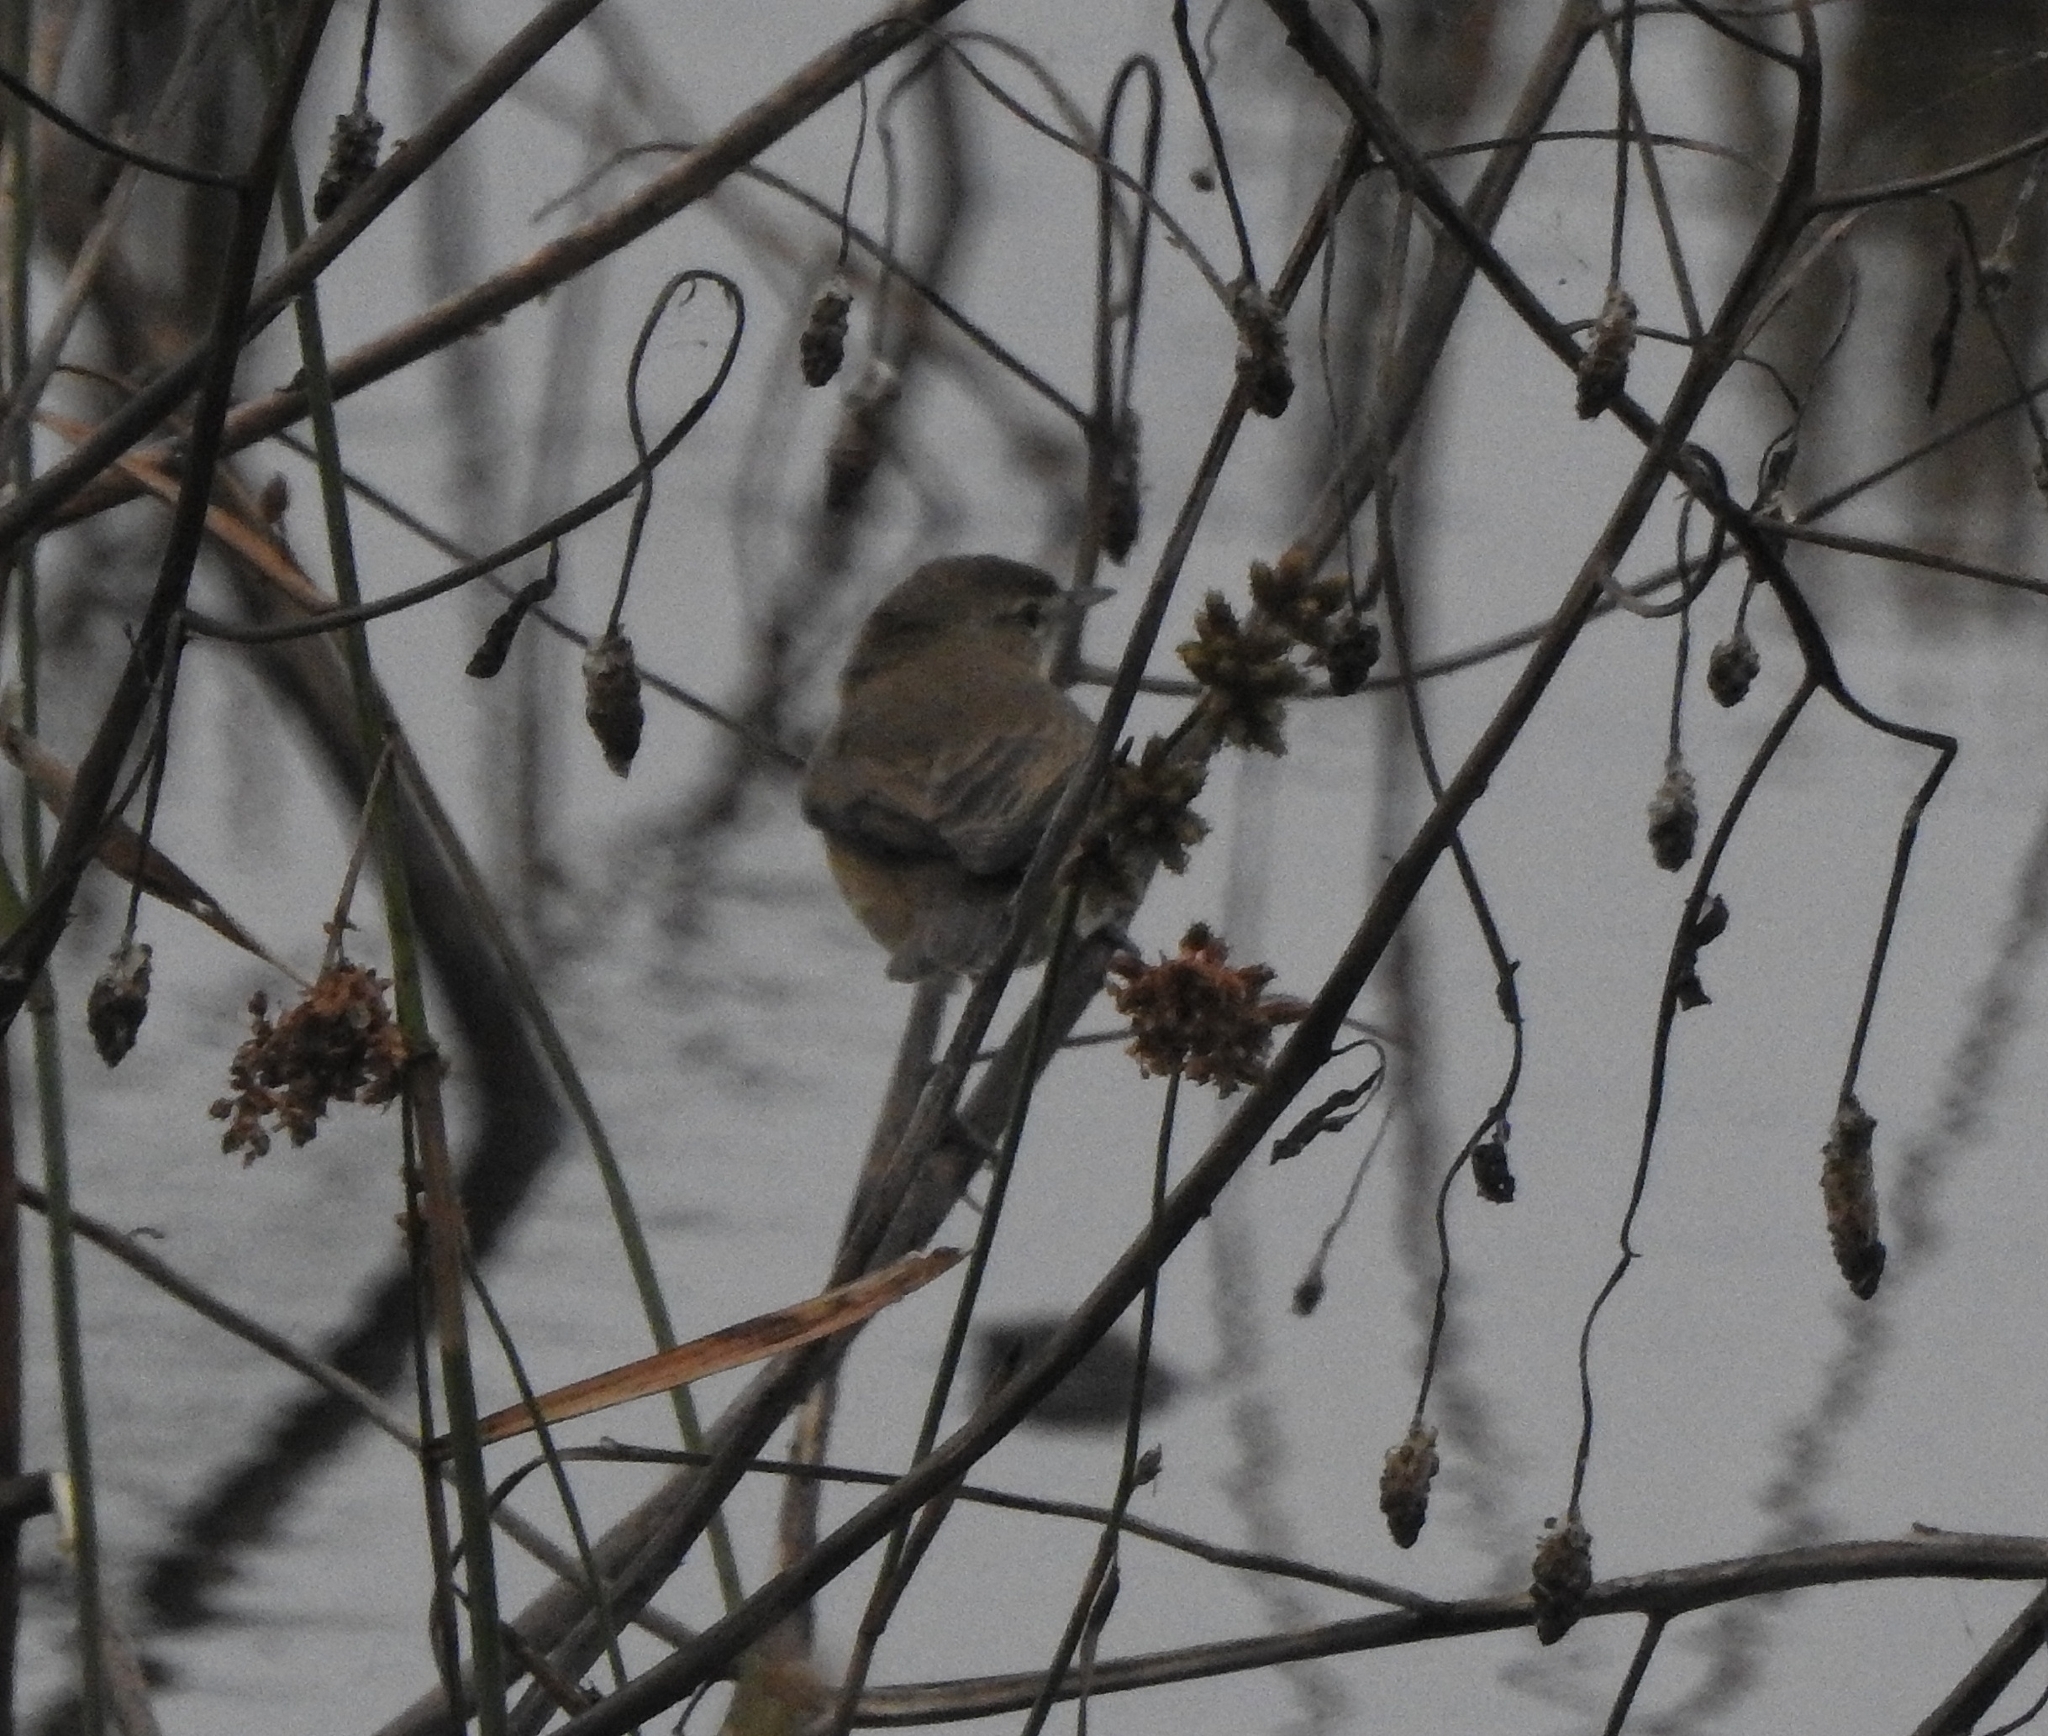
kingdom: Animalia
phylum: Chordata
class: Aves
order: Passeriformes
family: Acrocephalidae
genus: Acrocephalus
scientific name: Acrocephalus agricola
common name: Paddyfield warbler
